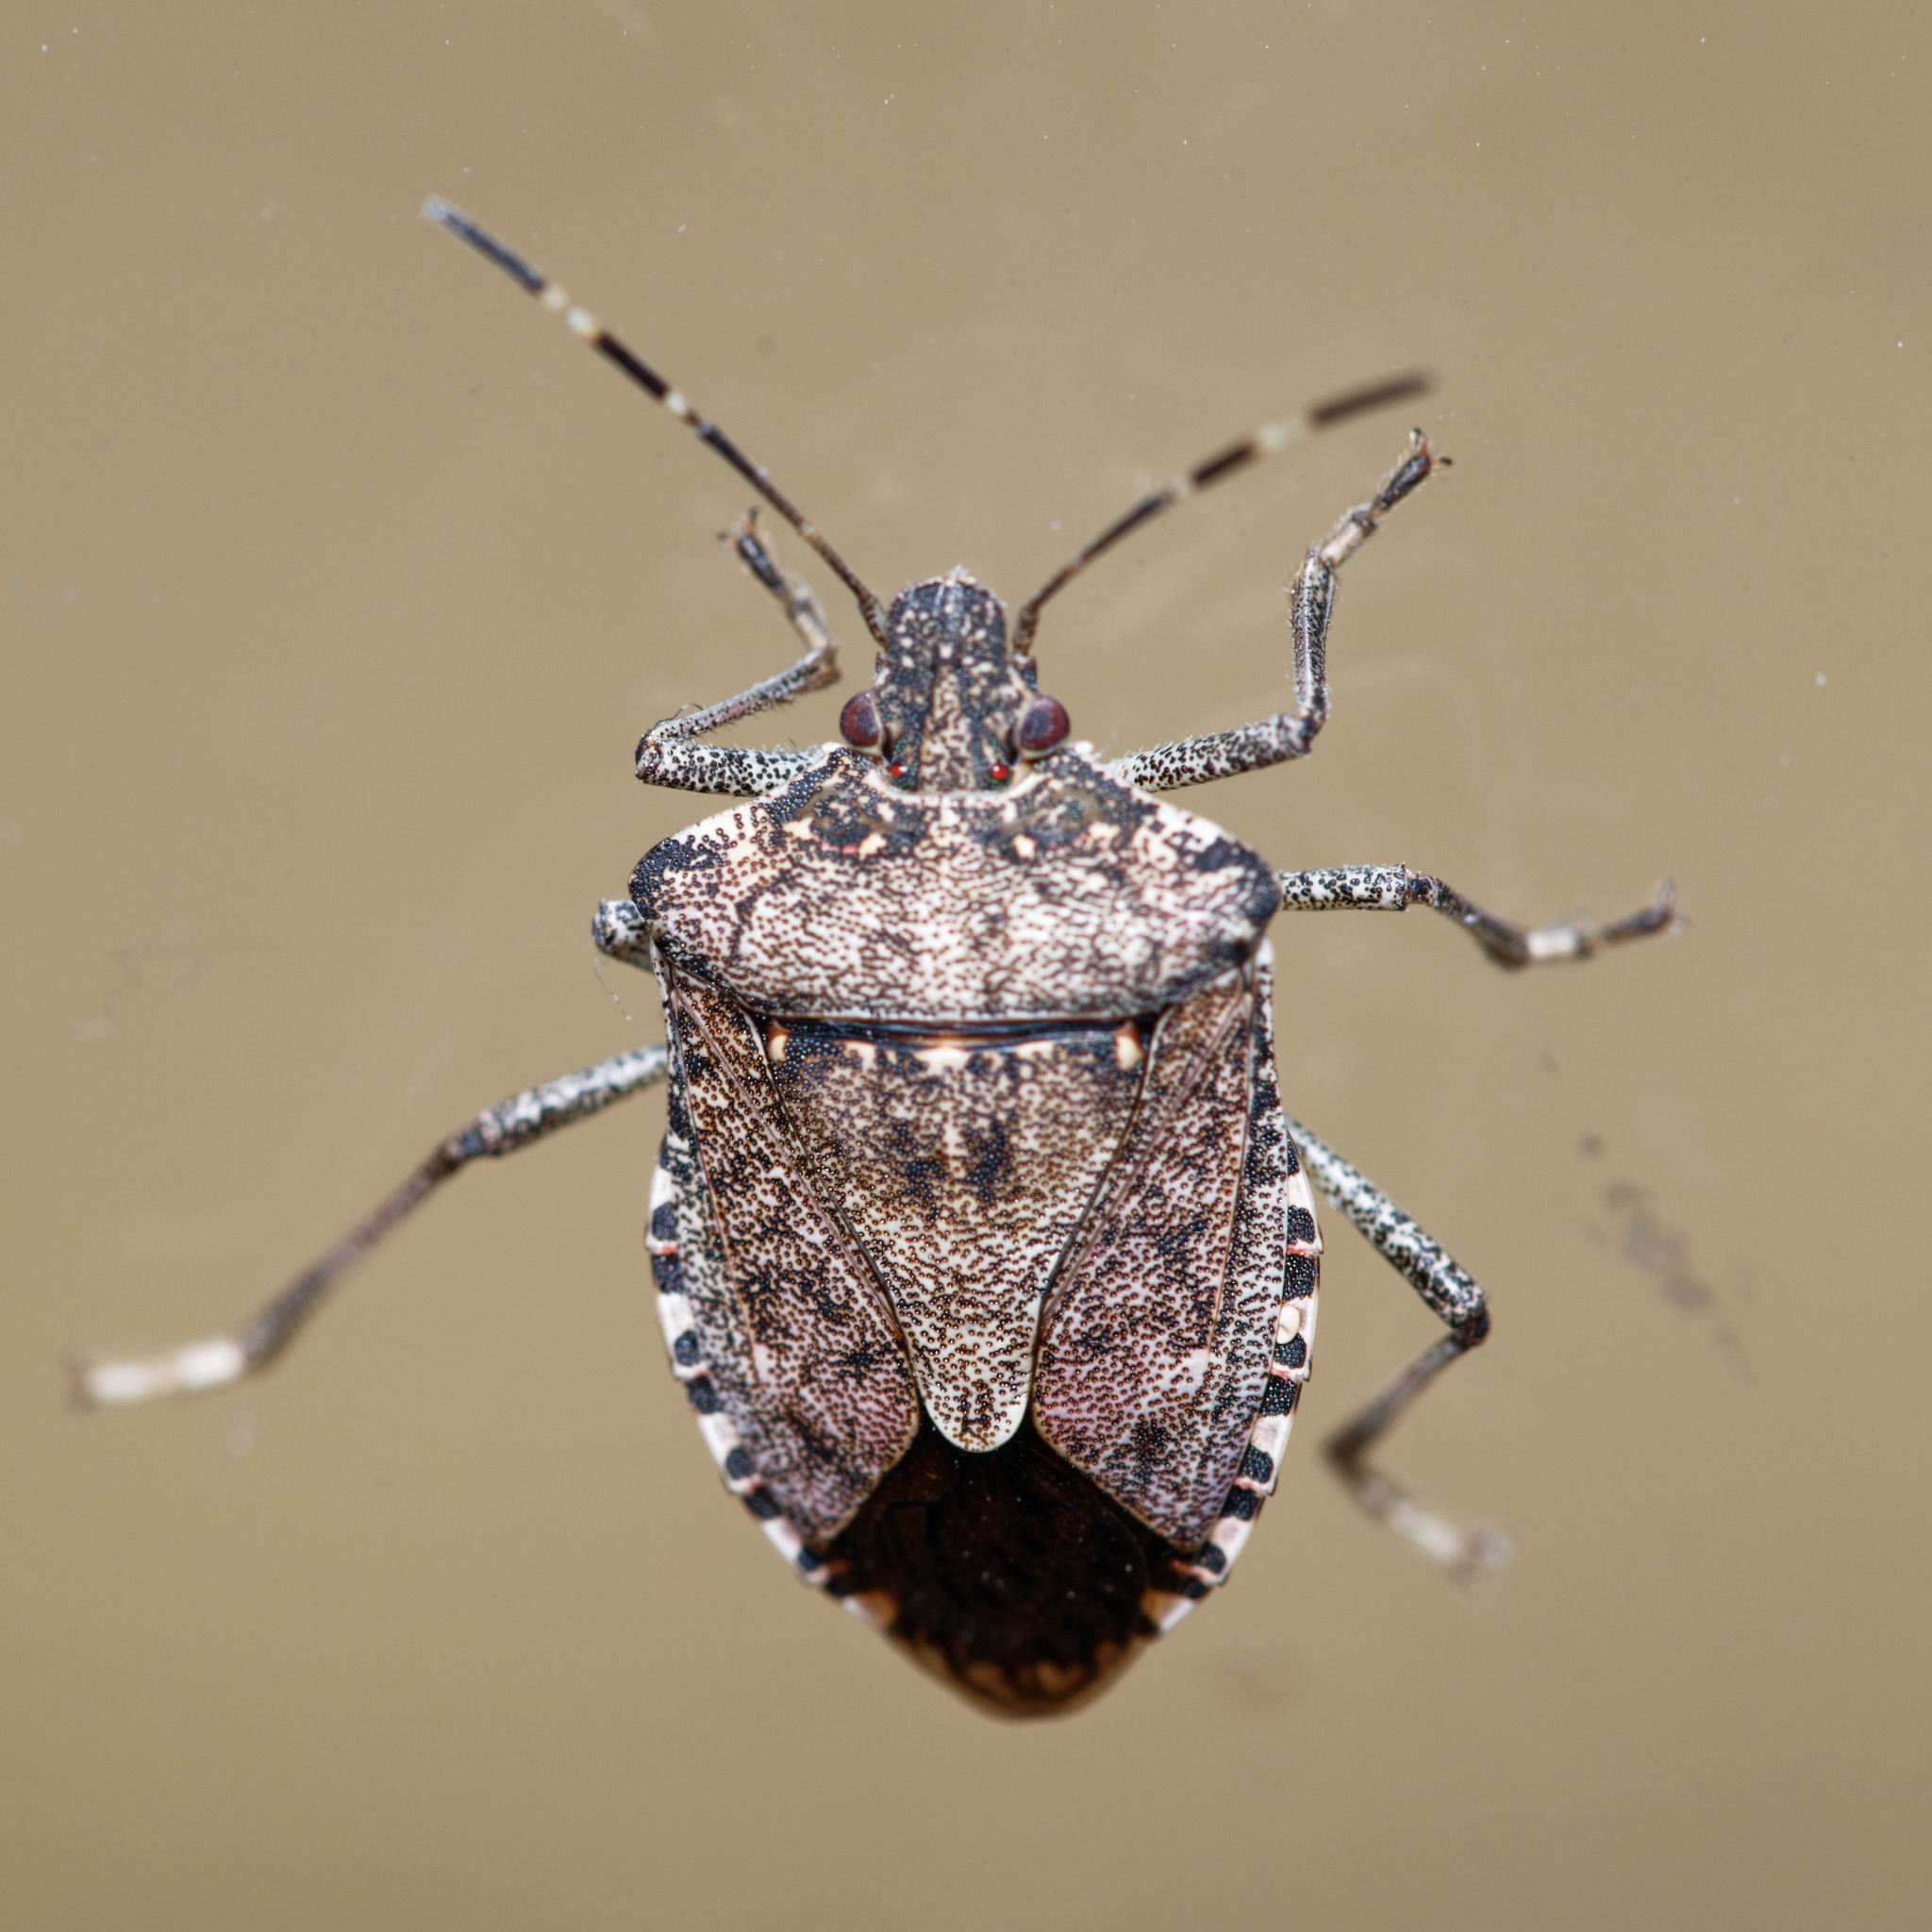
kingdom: Animalia
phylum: Arthropoda
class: Insecta
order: Hemiptera
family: Pentatomidae
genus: Halyomorpha
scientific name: Halyomorpha halys
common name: Brown marmorated stink bug
